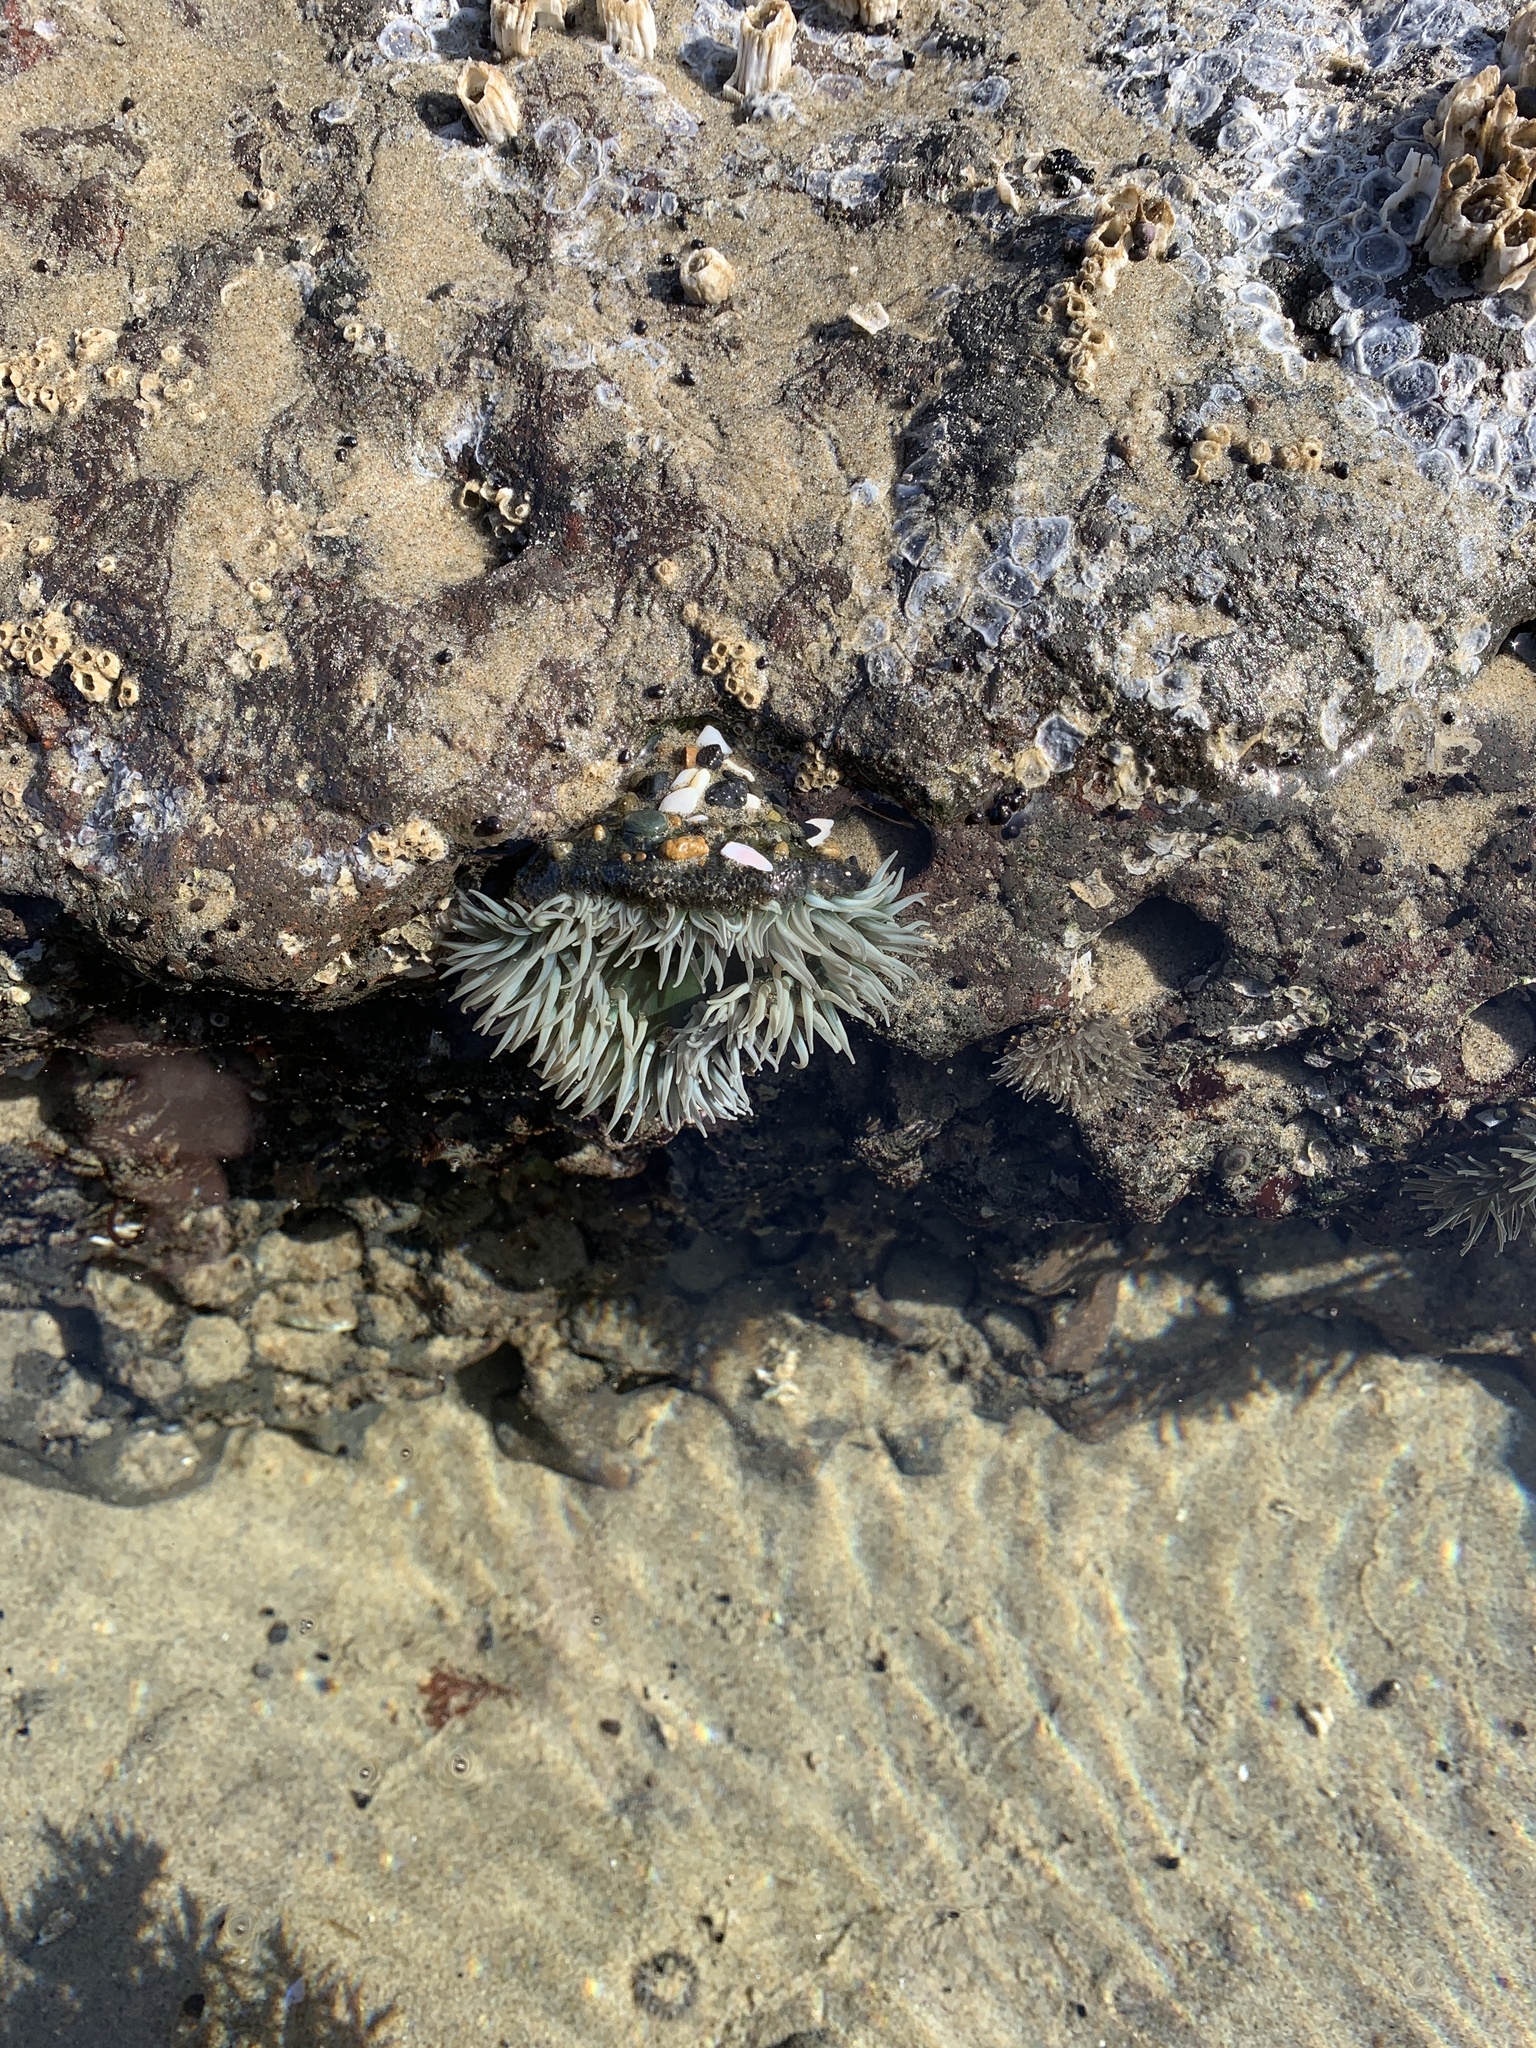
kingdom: Animalia
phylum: Cnidaria
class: Anthozoa
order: Actiniaria
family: Actiniidae
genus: Anthopleura
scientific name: Anthopleura xanthogrammica
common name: Giant green anemone
